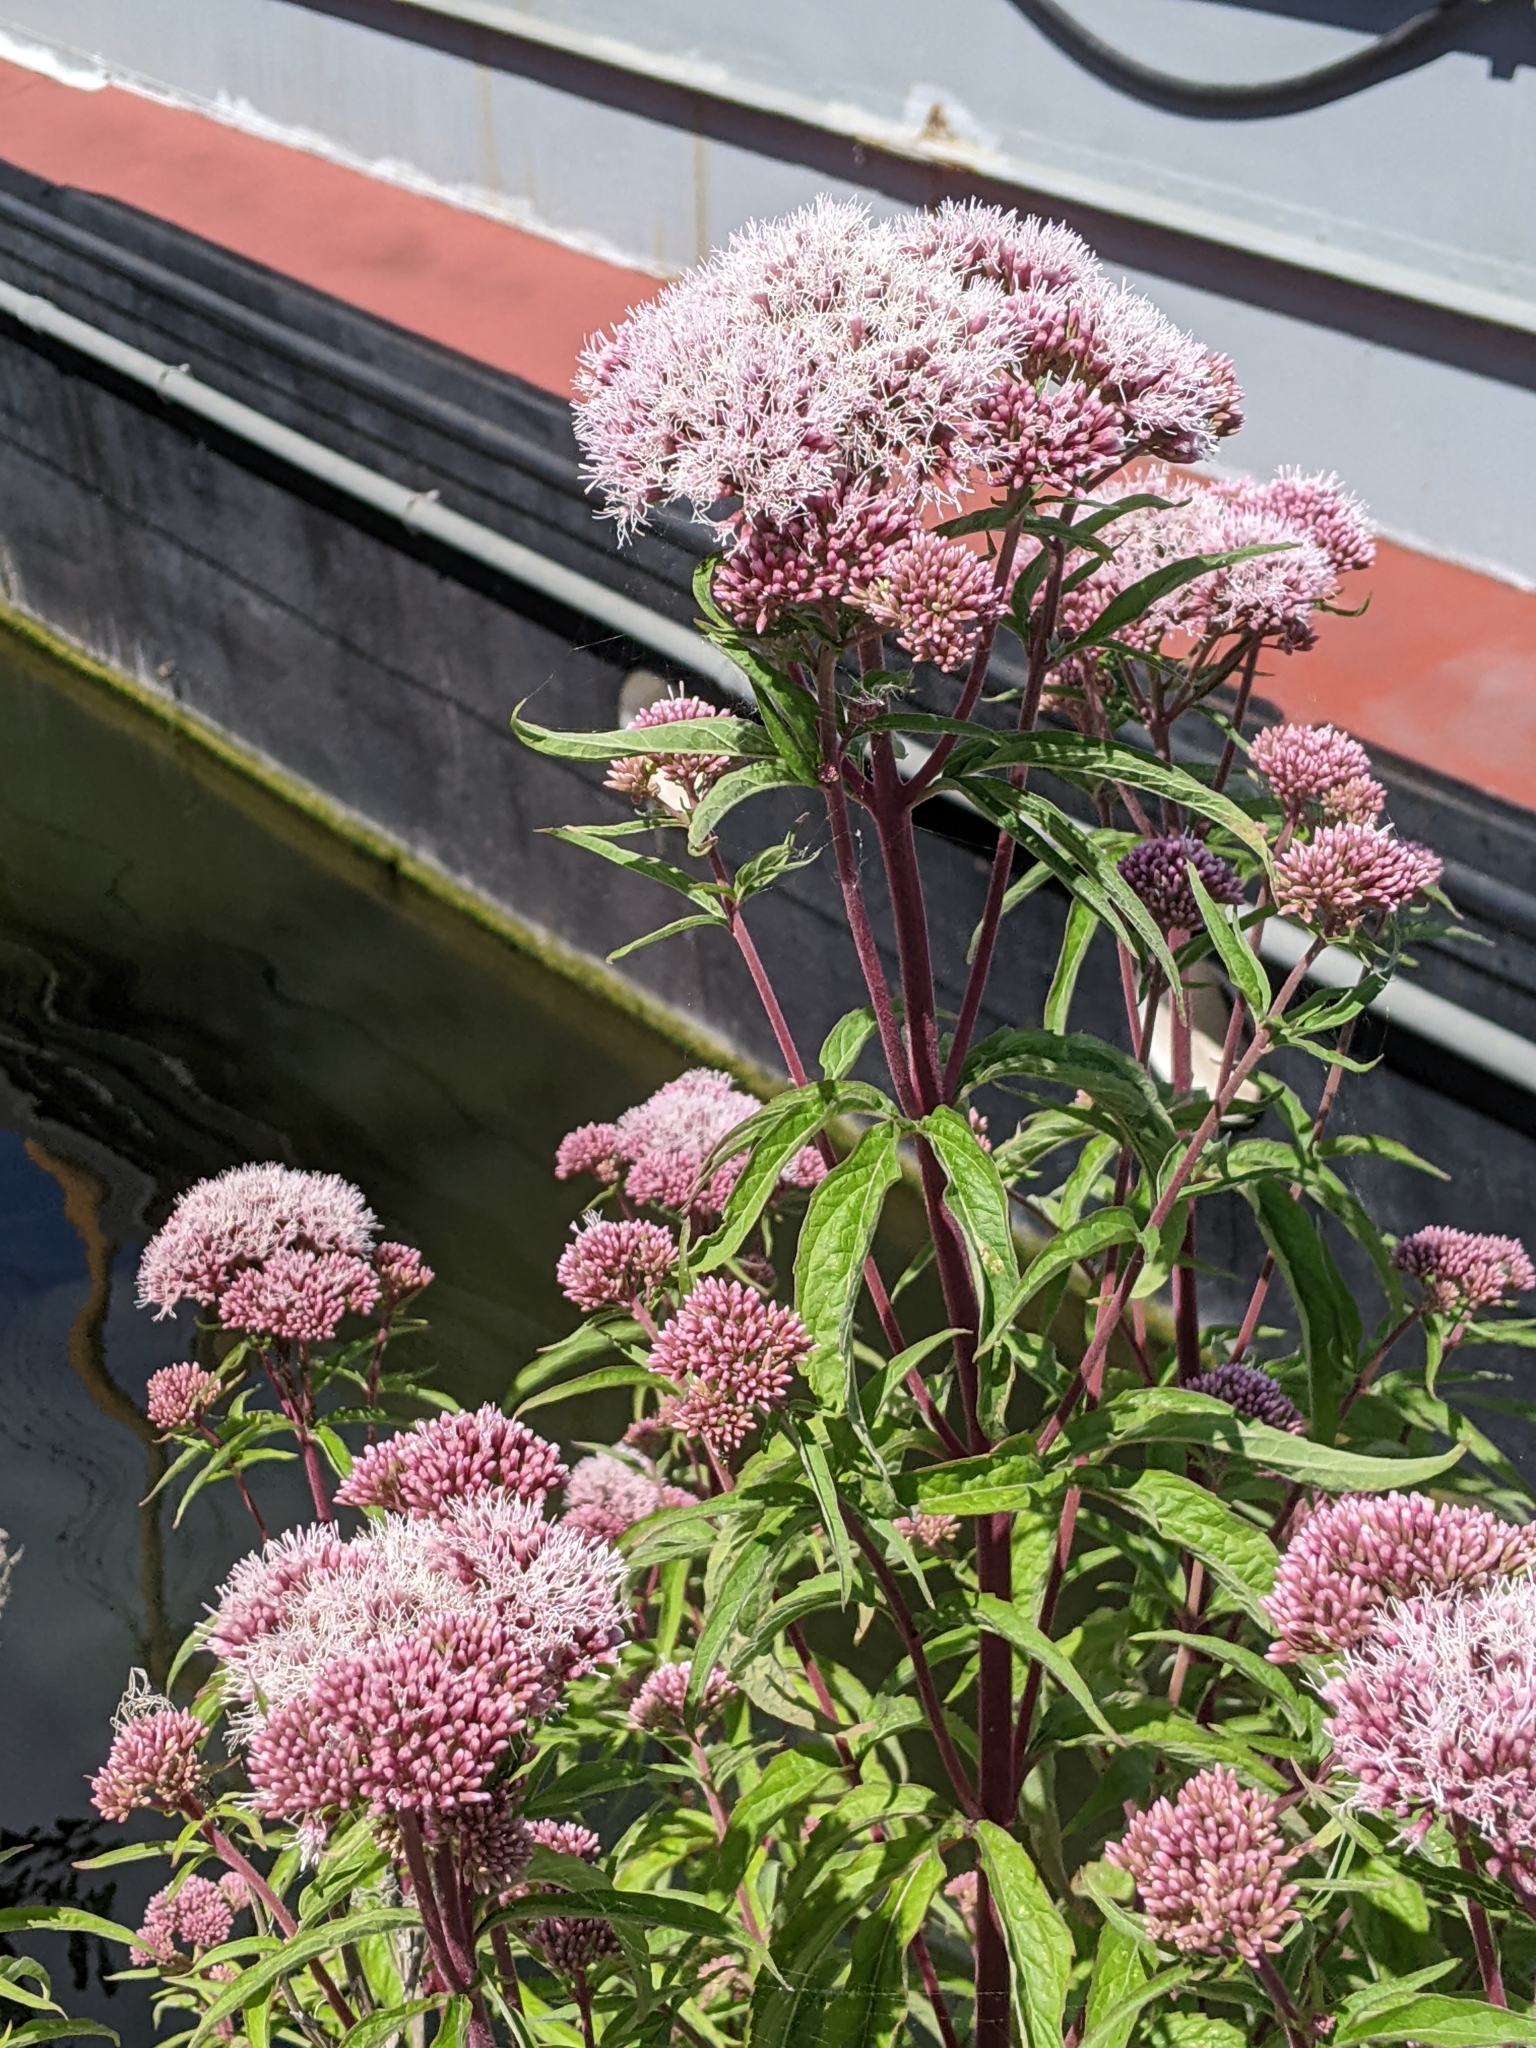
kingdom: Plantae
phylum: Tracheophyta
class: Magnoliopsida
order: Asterales
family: Asteraceae
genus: Eupatorium
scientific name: Eupatorium cannabinum
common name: Hemp-agrimony
